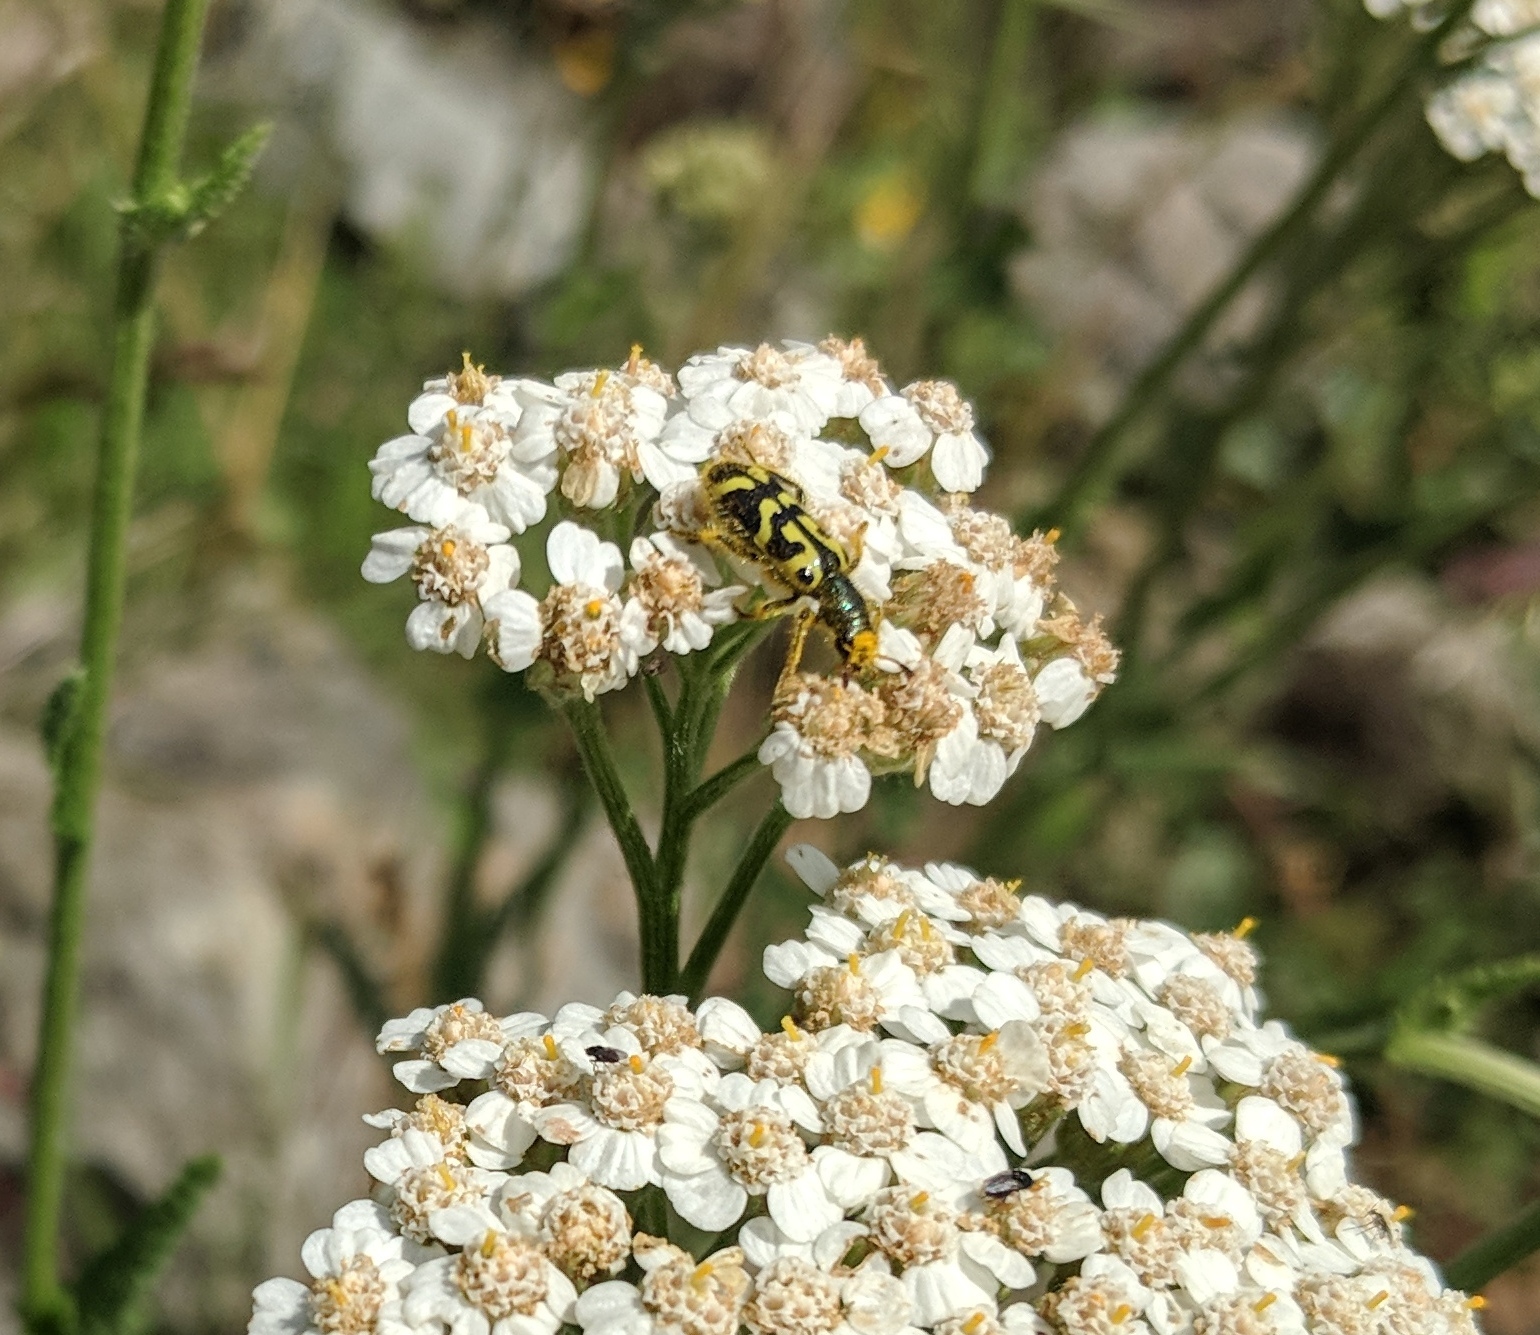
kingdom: Animalia
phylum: Arthropoda
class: Insecta
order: Coleoptera
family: Cleridae
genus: Trichodes
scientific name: Trichodes ornatus
